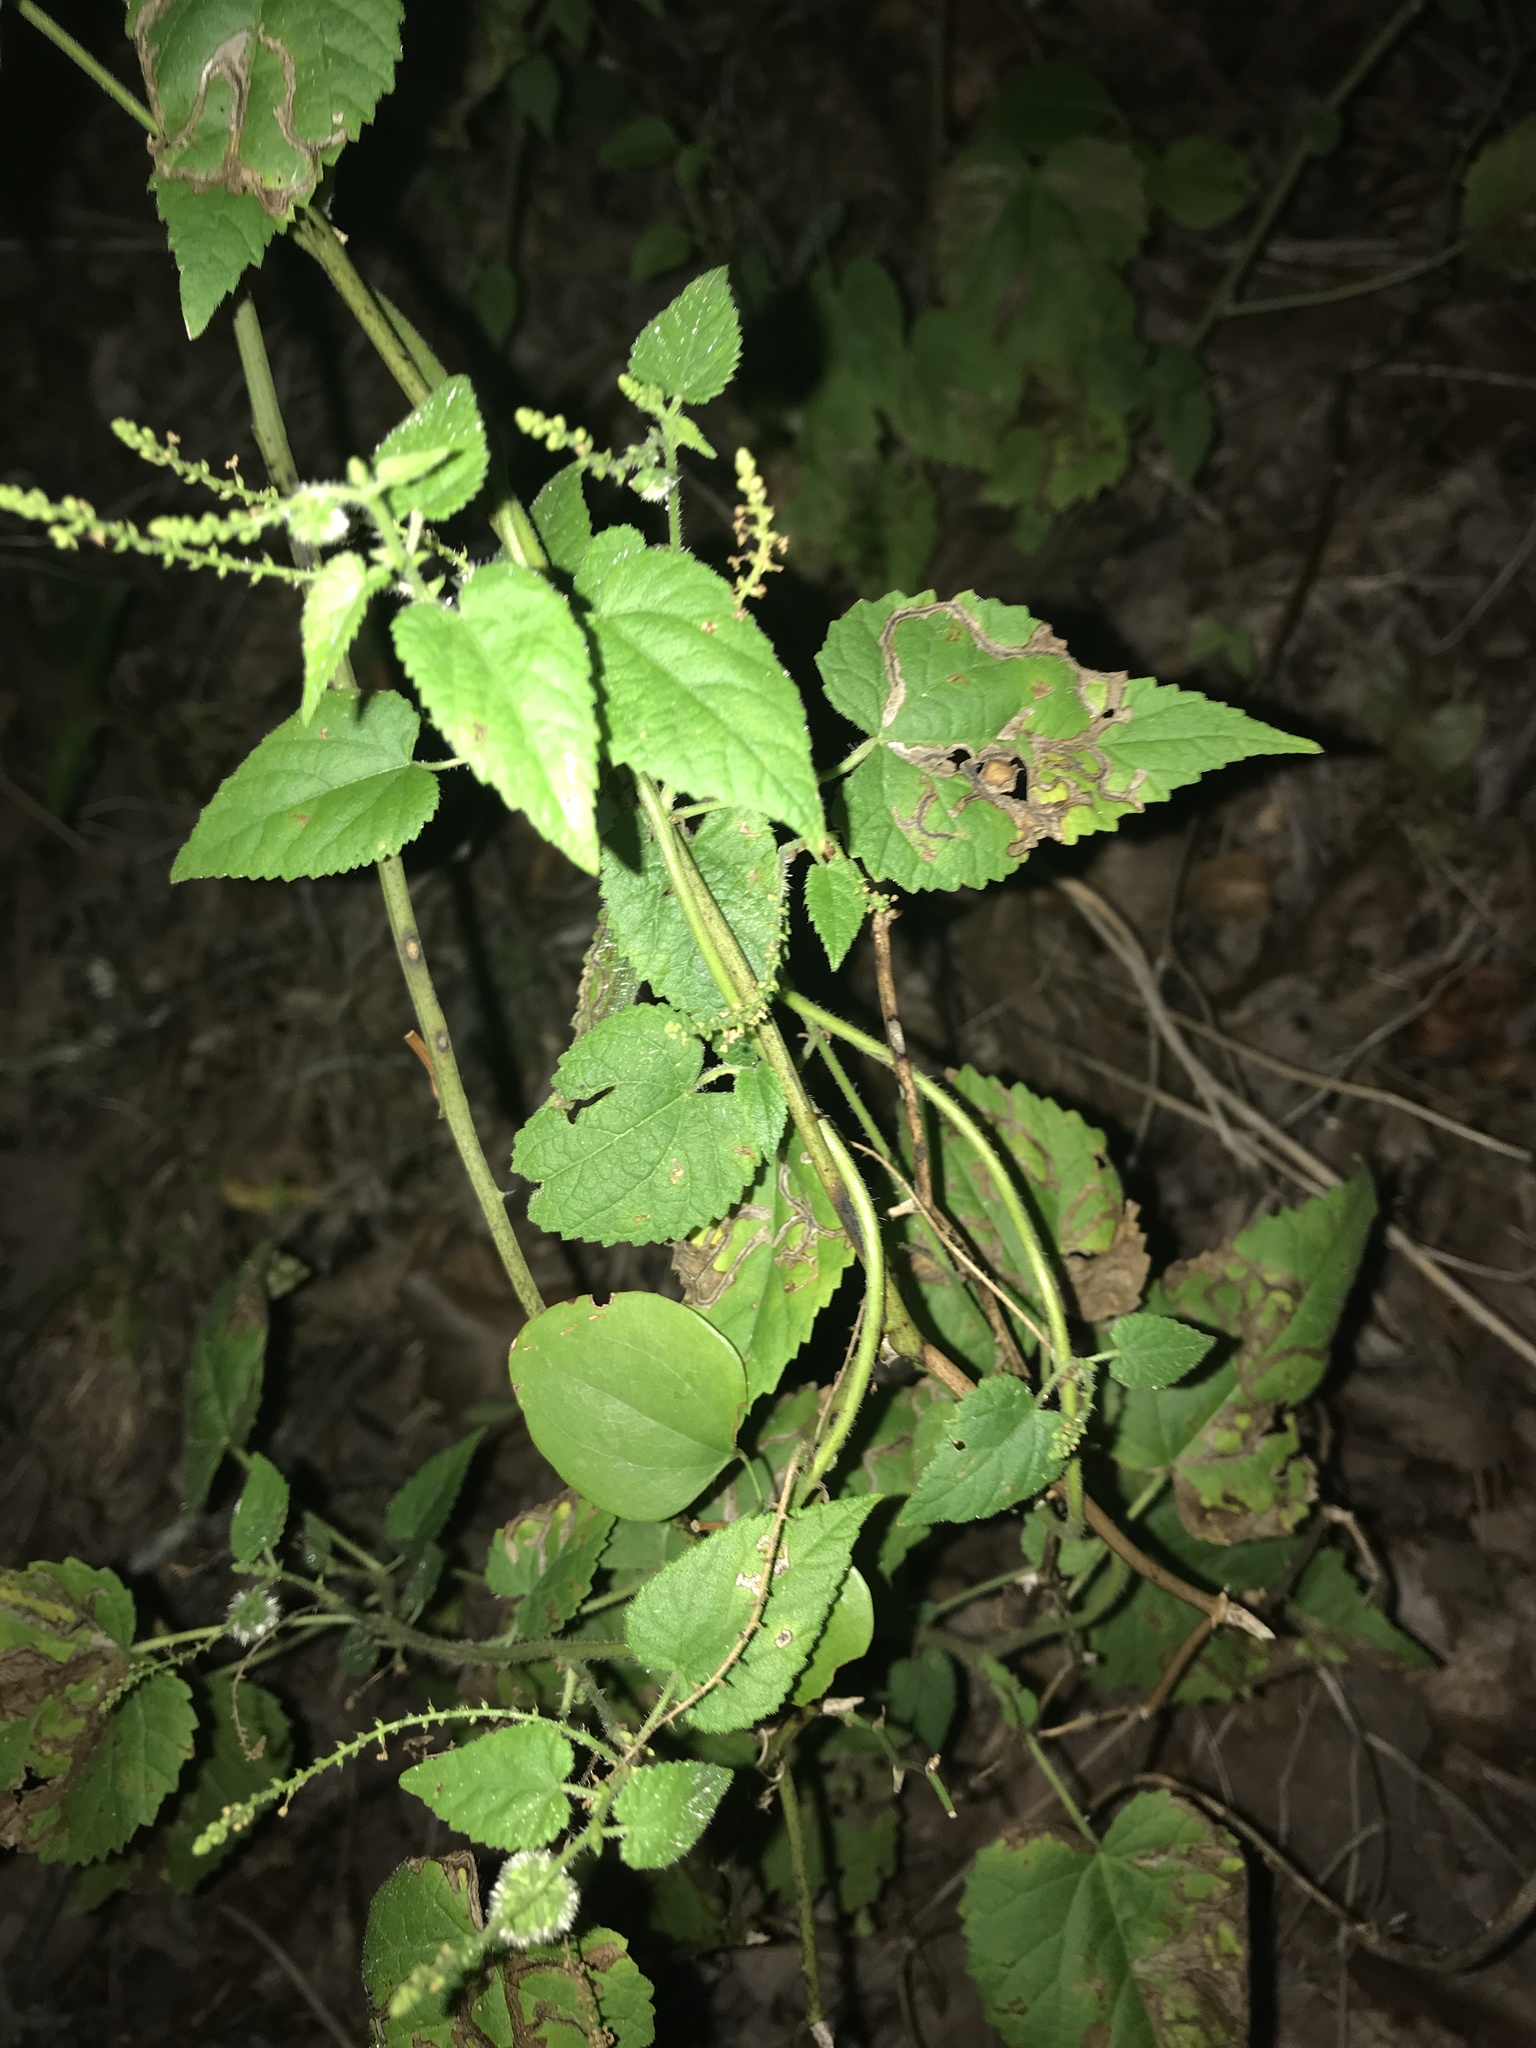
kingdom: Plantae
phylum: Tracheophyta
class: Magnoliopsida
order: Malpighiales
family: Euphorbiaceae
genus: Tragia
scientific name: Tragia cordata
